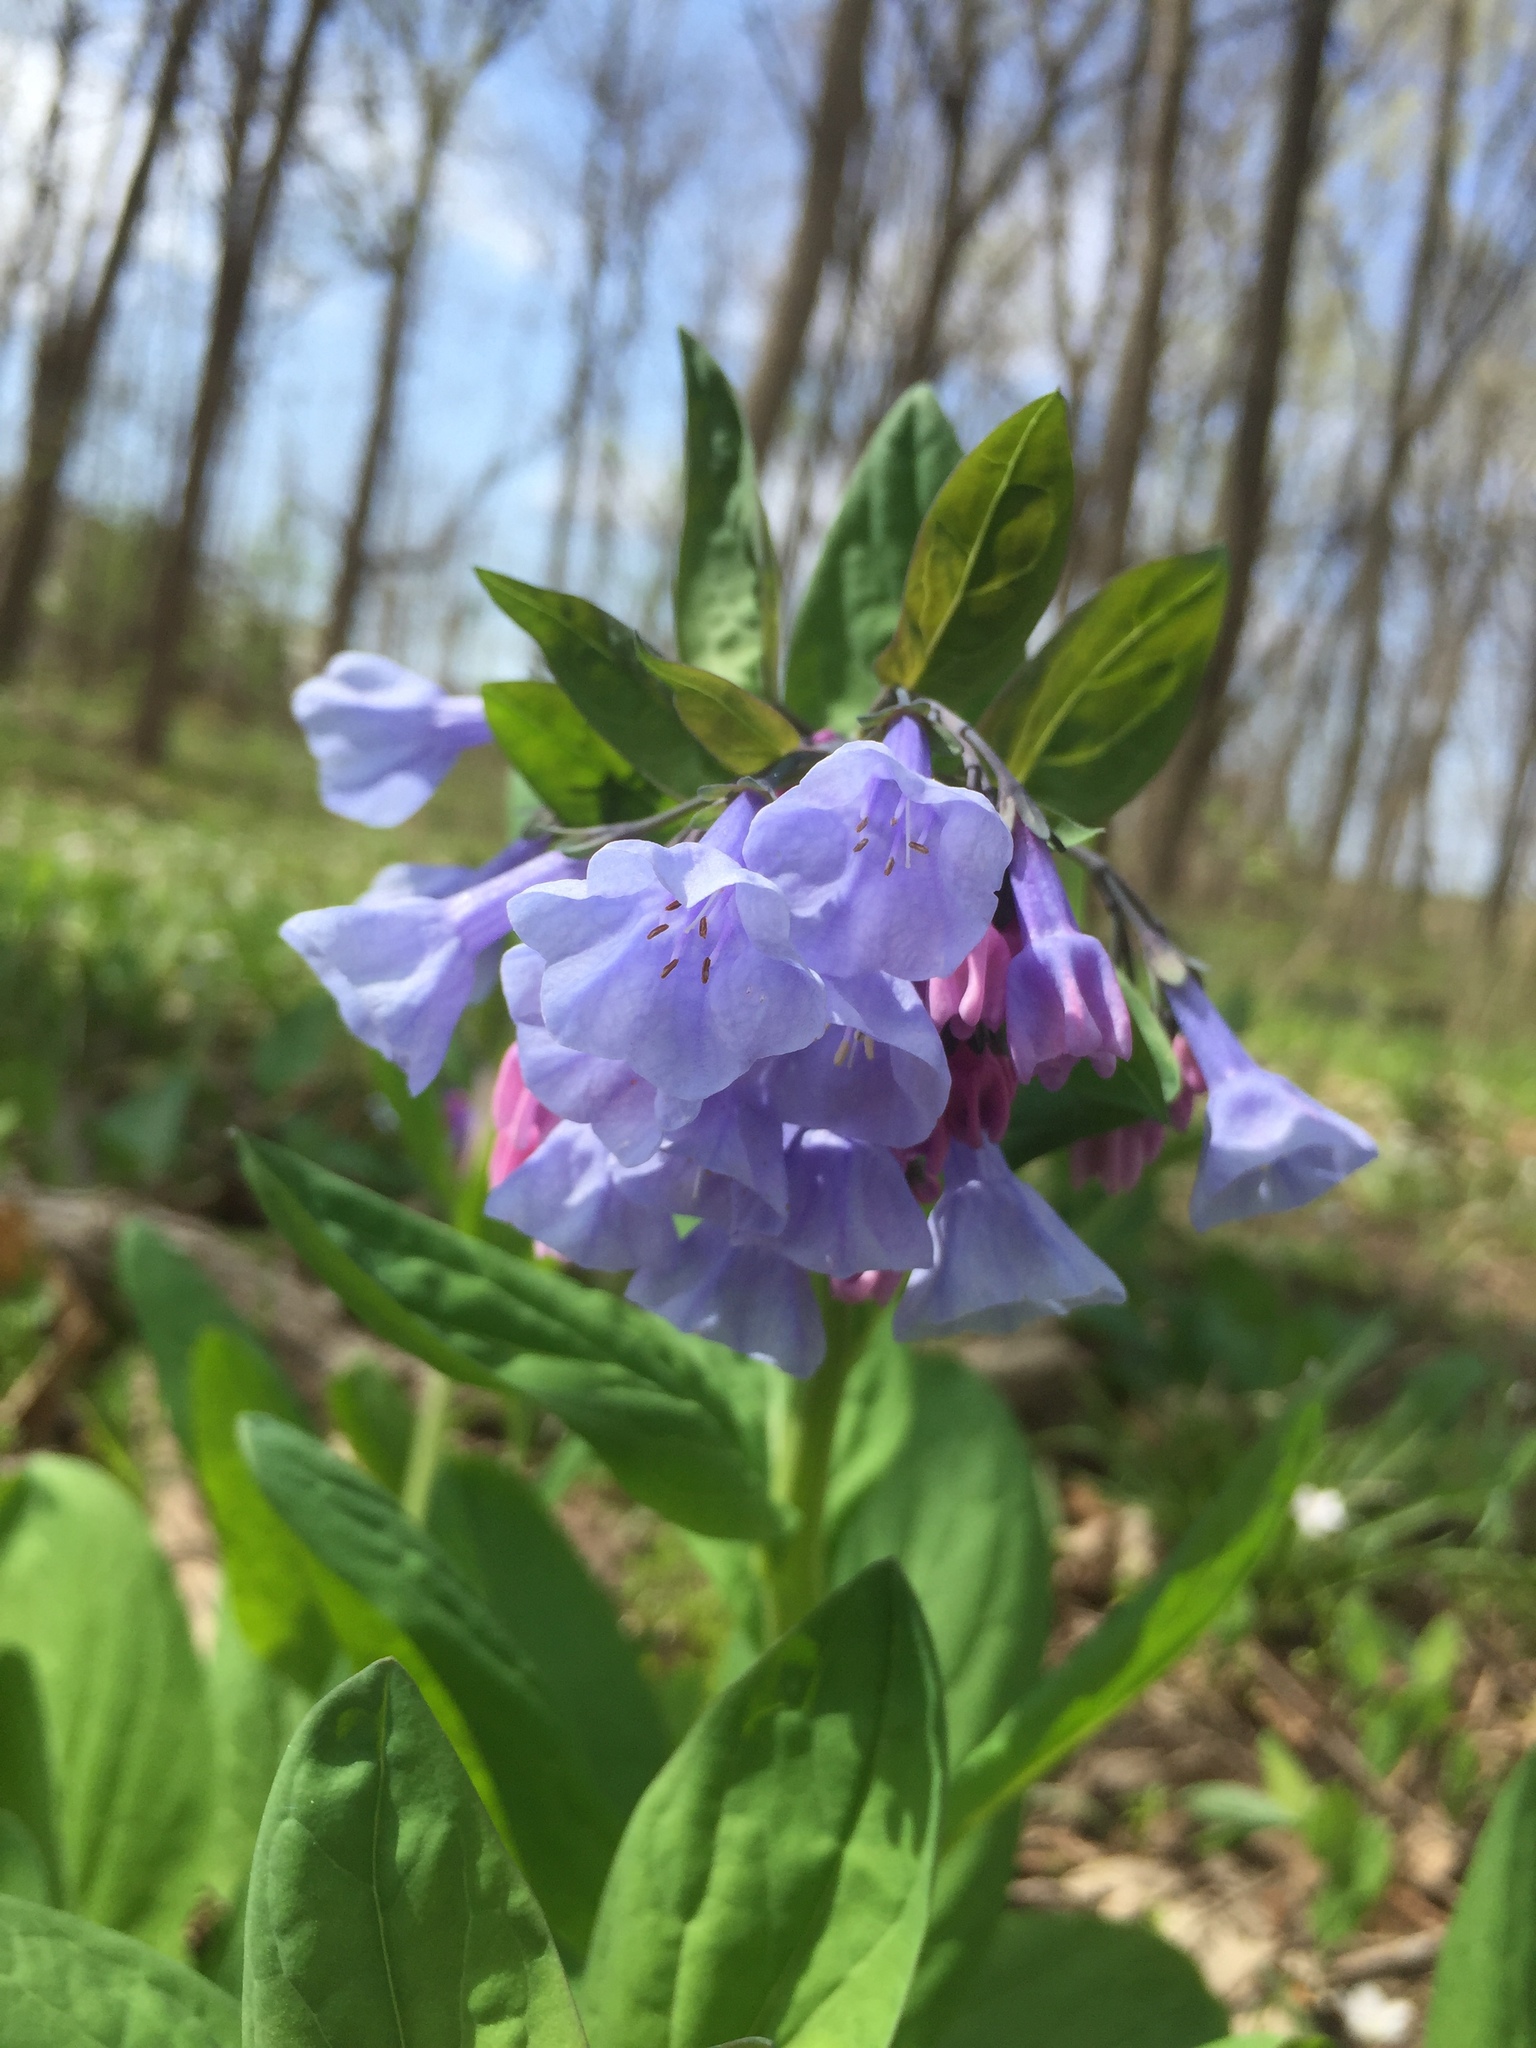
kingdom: Plantae
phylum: Tracheophyta
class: Magnoliopsida
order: Boraginales
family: Boraginaceae
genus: Mertensia
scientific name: Mertensia virginica
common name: Virginia bluebells
